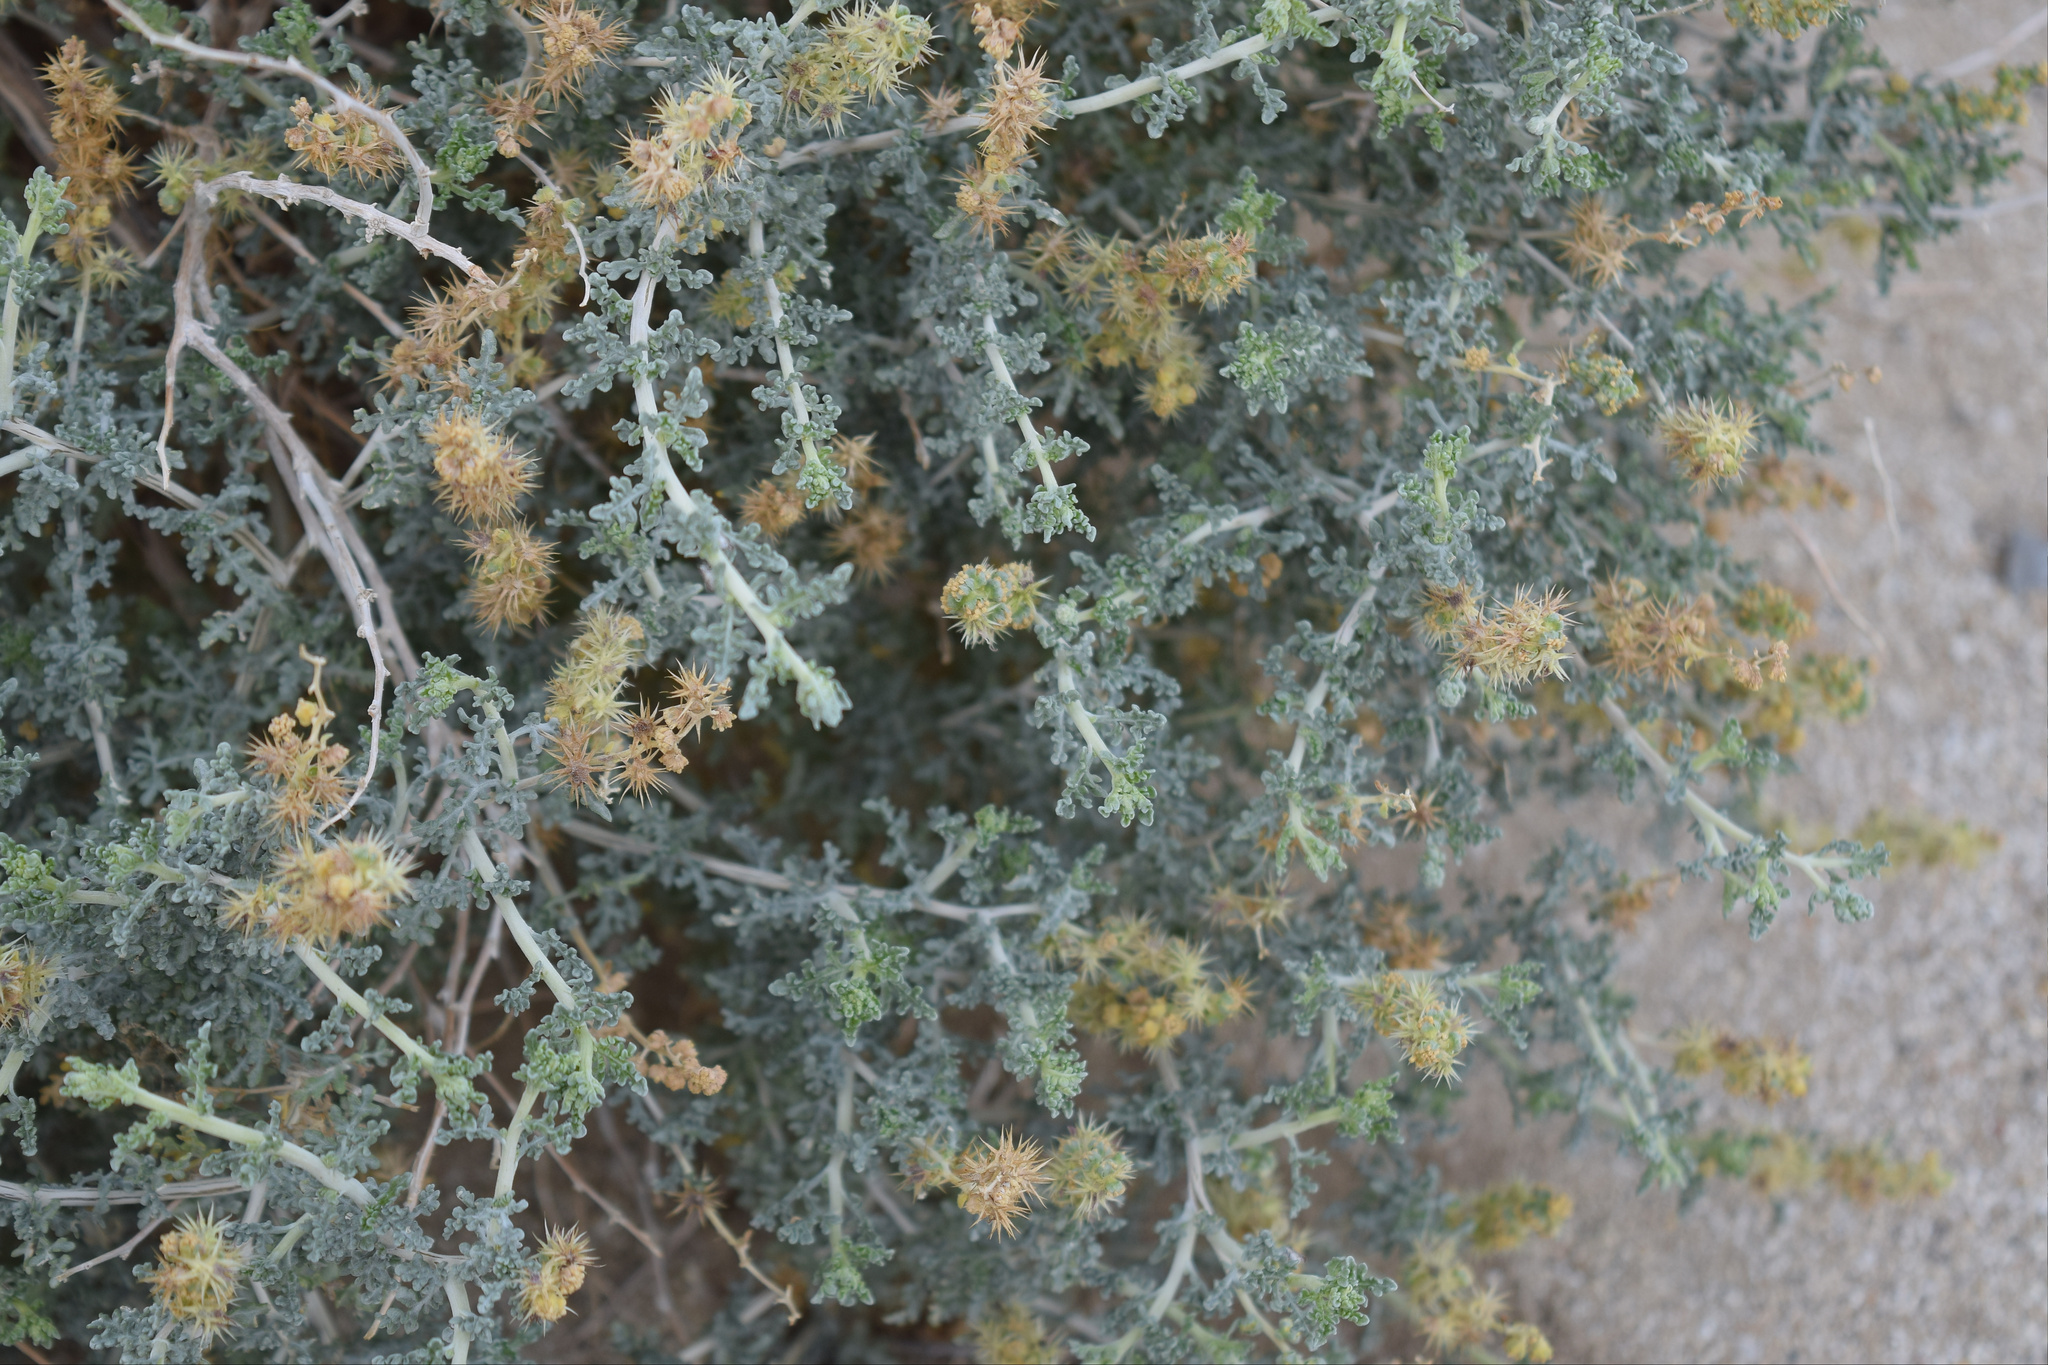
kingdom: Plantae
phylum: Tracheophyta
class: Magnoliopsida
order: Asterales
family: Asteraceae
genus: Ambrosia
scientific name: Ambrosia dumosa
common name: Bur-sage
